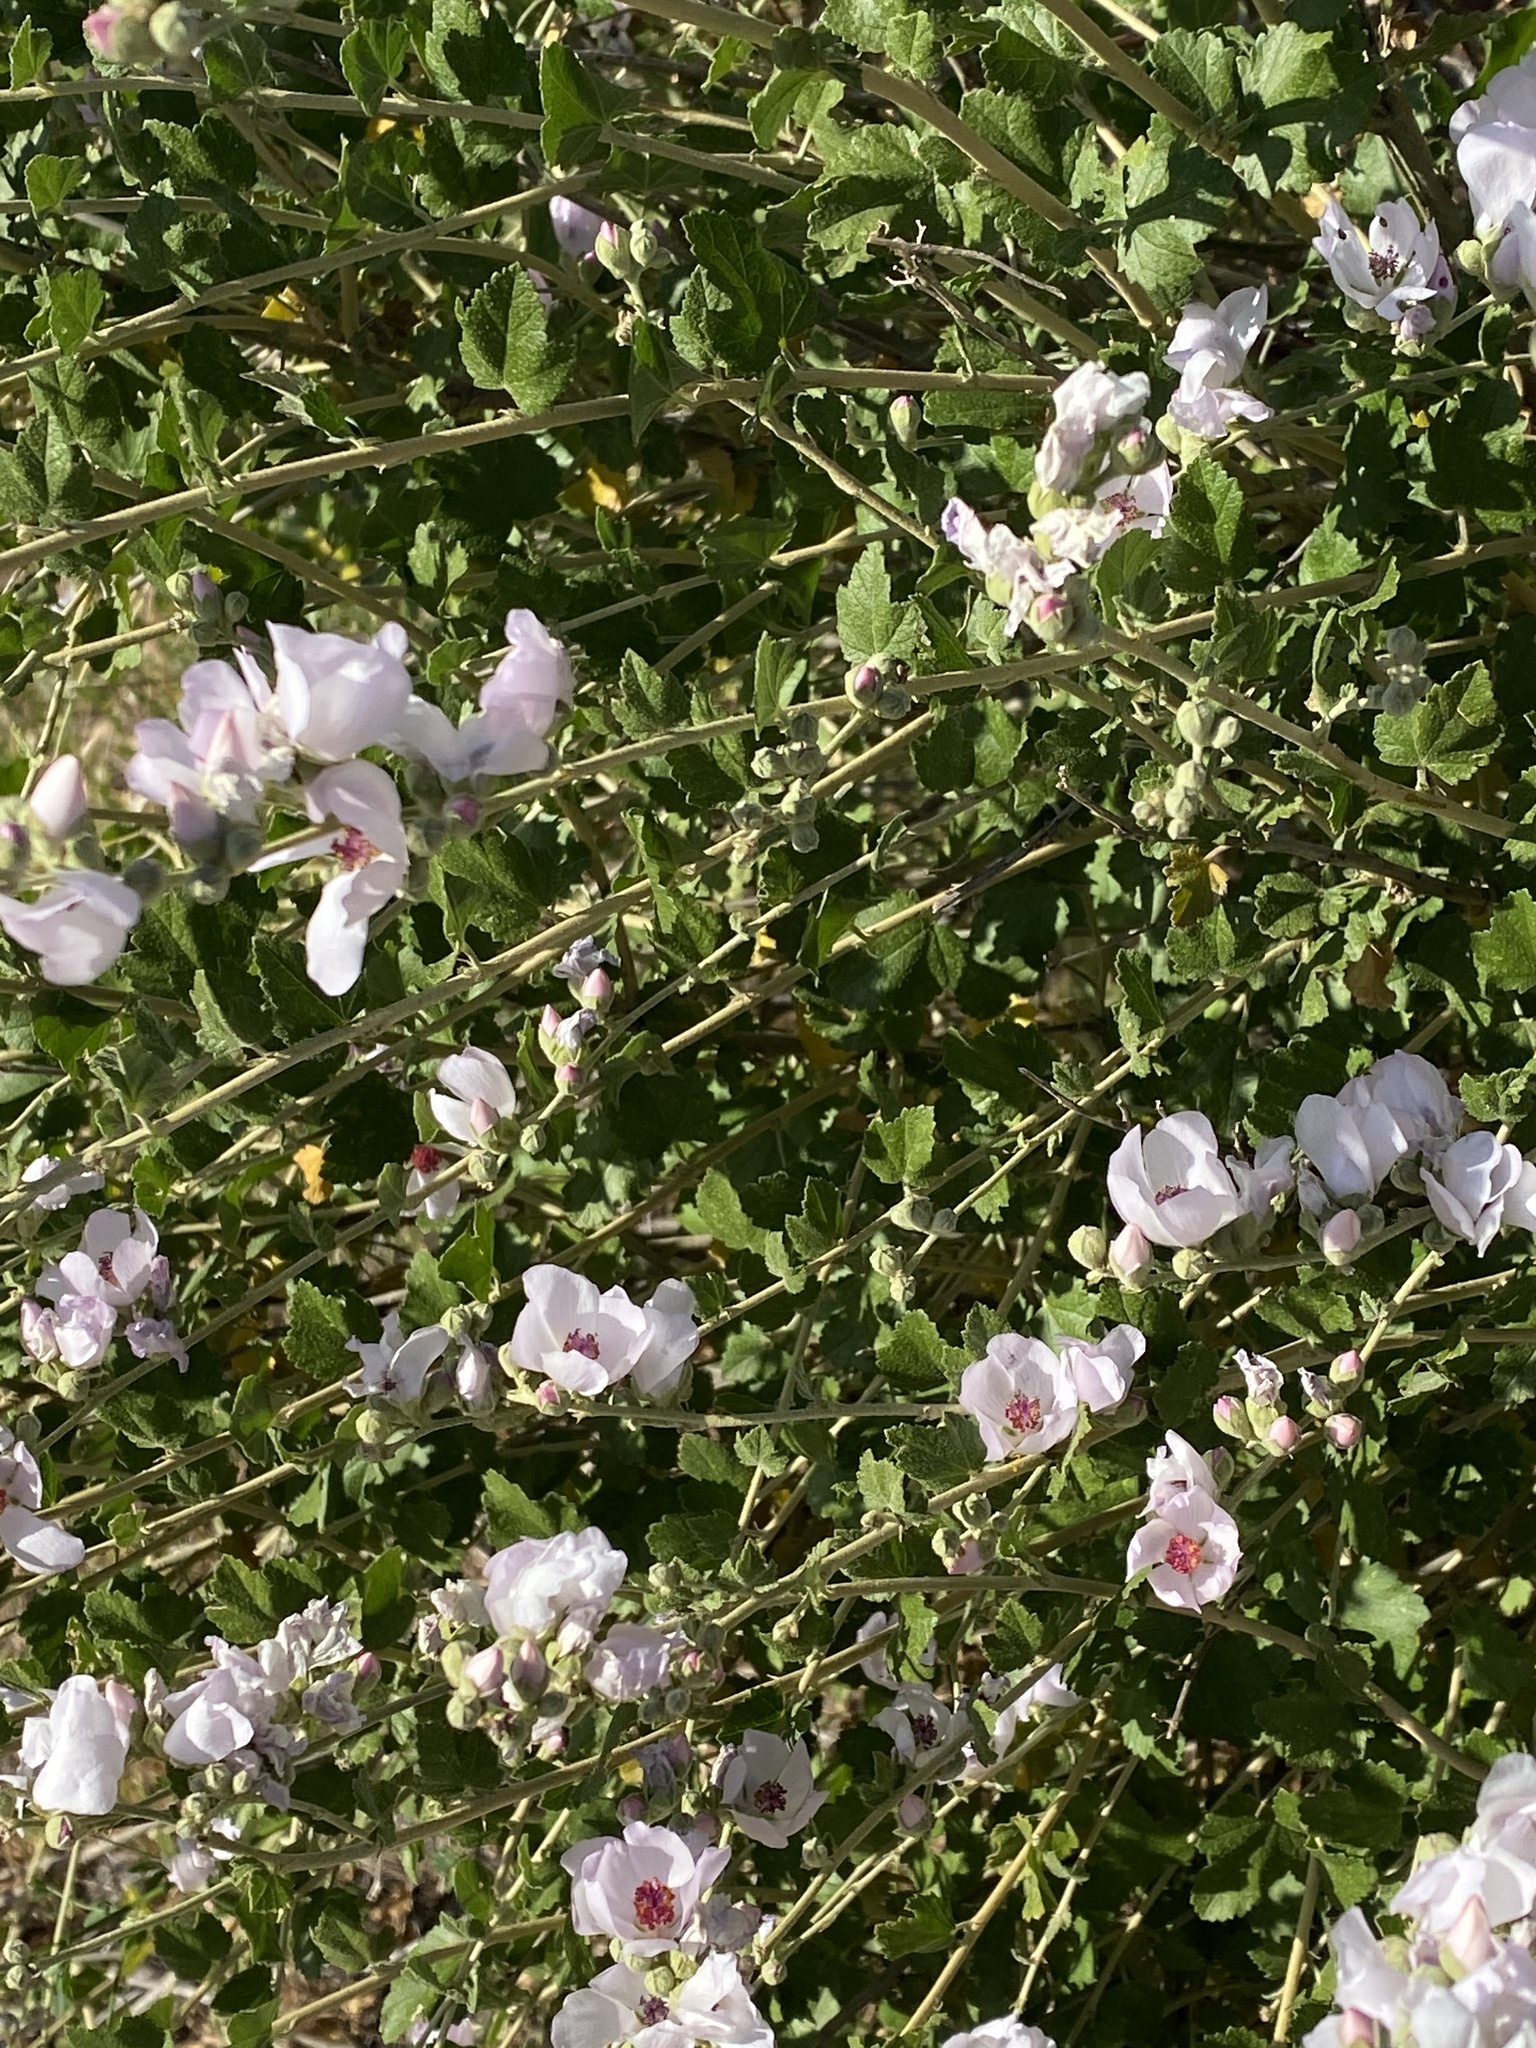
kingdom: Plantae
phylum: Tracheophyta
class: Magnoliopsida
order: Malvales
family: Malvaceae
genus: Malacothamnus
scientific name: Malacothamnus fasciculatus
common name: Sant cruz island bush-mallow
